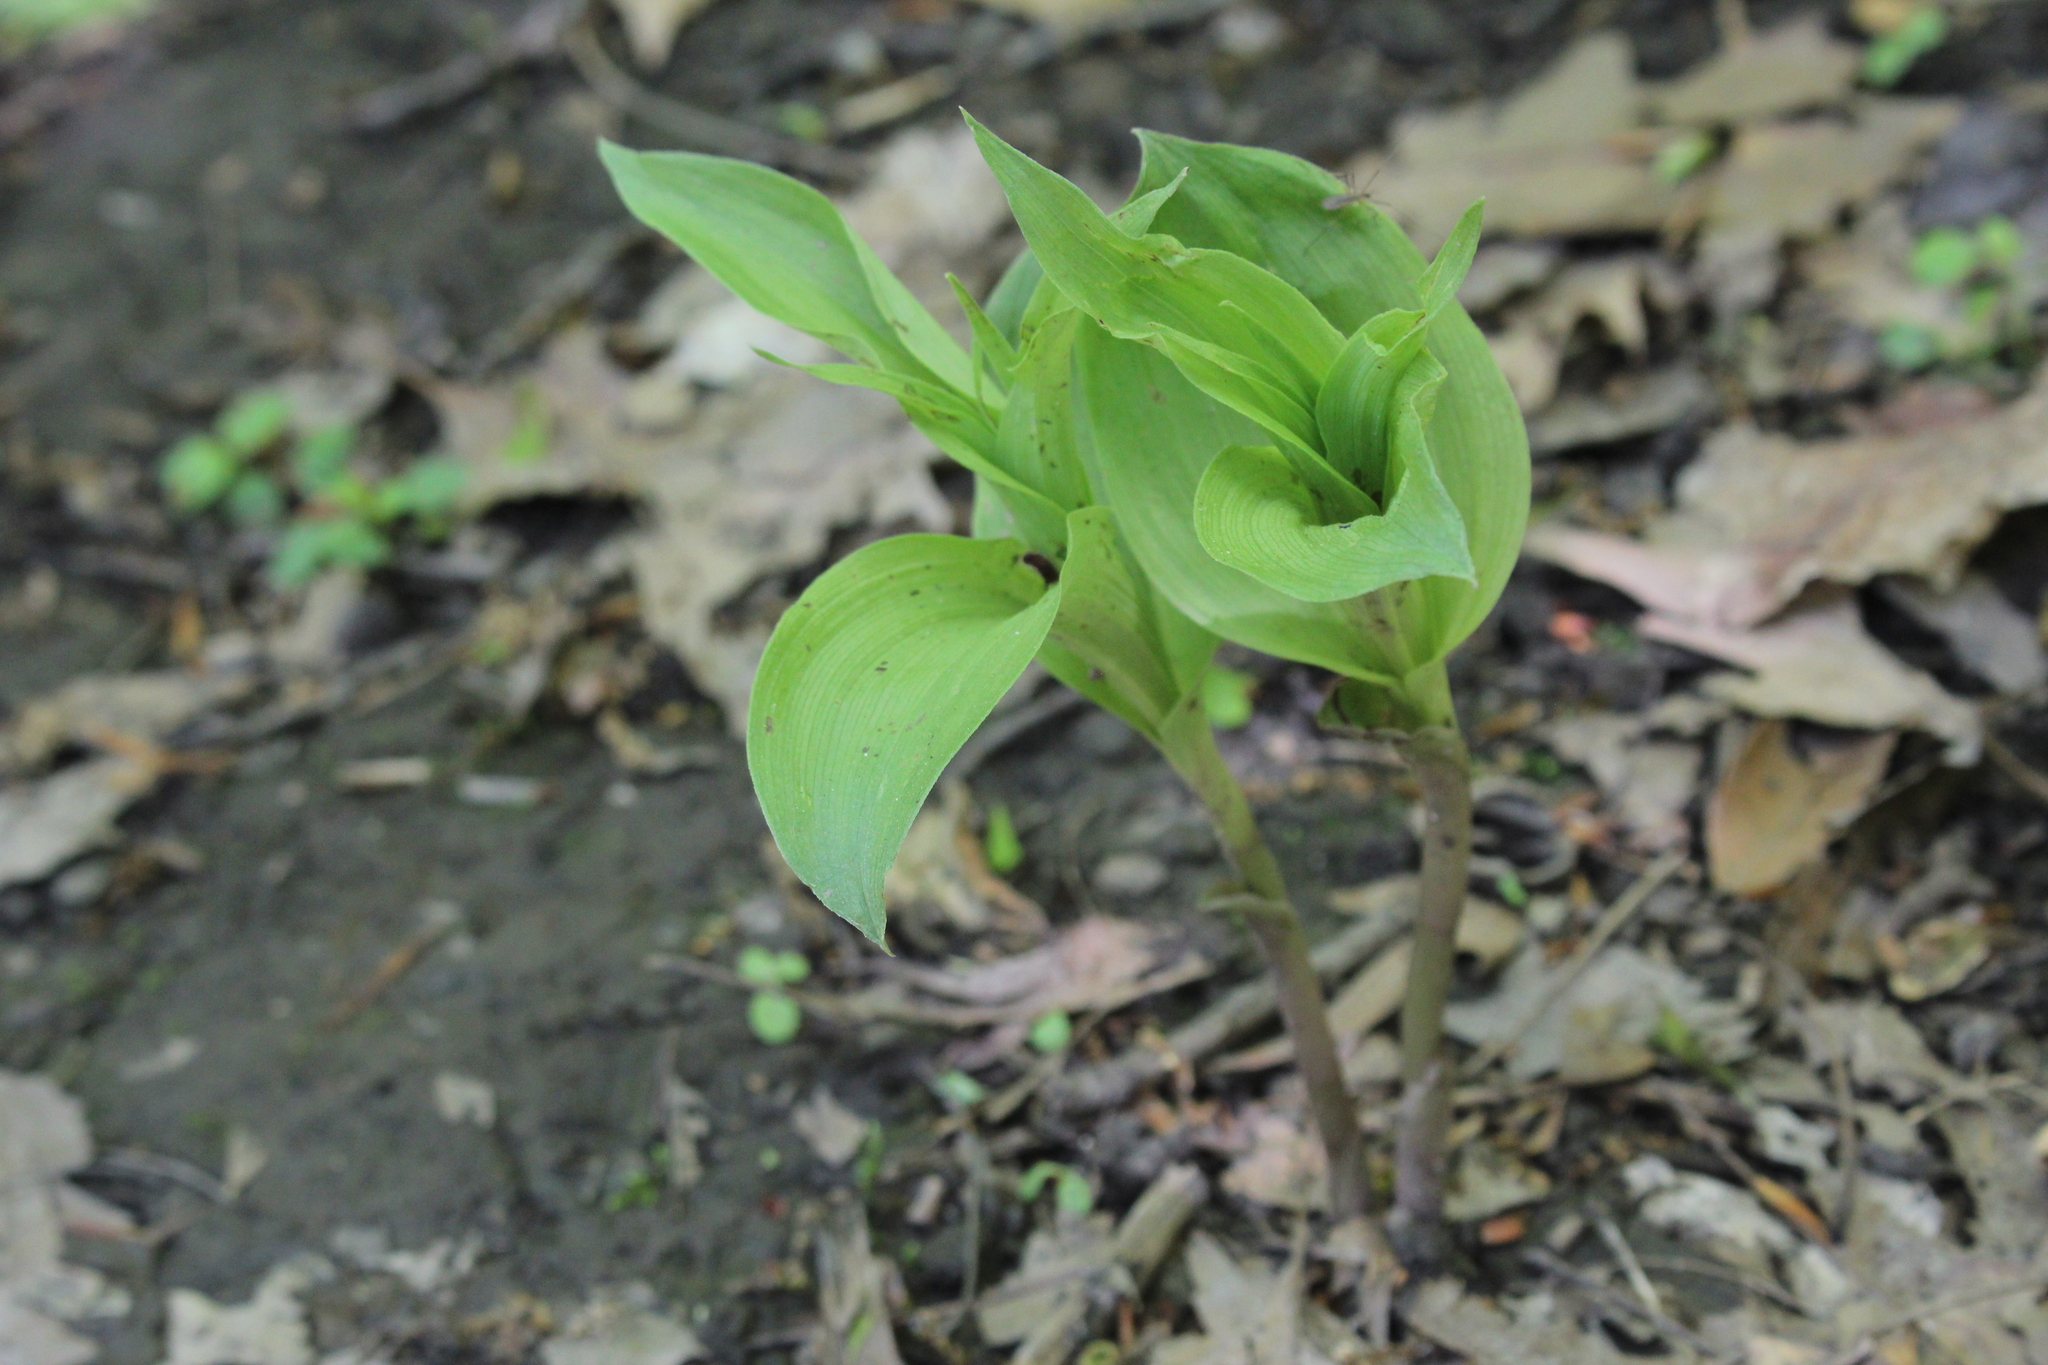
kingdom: Plantae
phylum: Tracheophyta
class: Liliopsida
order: Asparagales
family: Orchidaceae
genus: Epipactis
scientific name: Epipactis helleborine
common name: Broad-leaved helleborine
